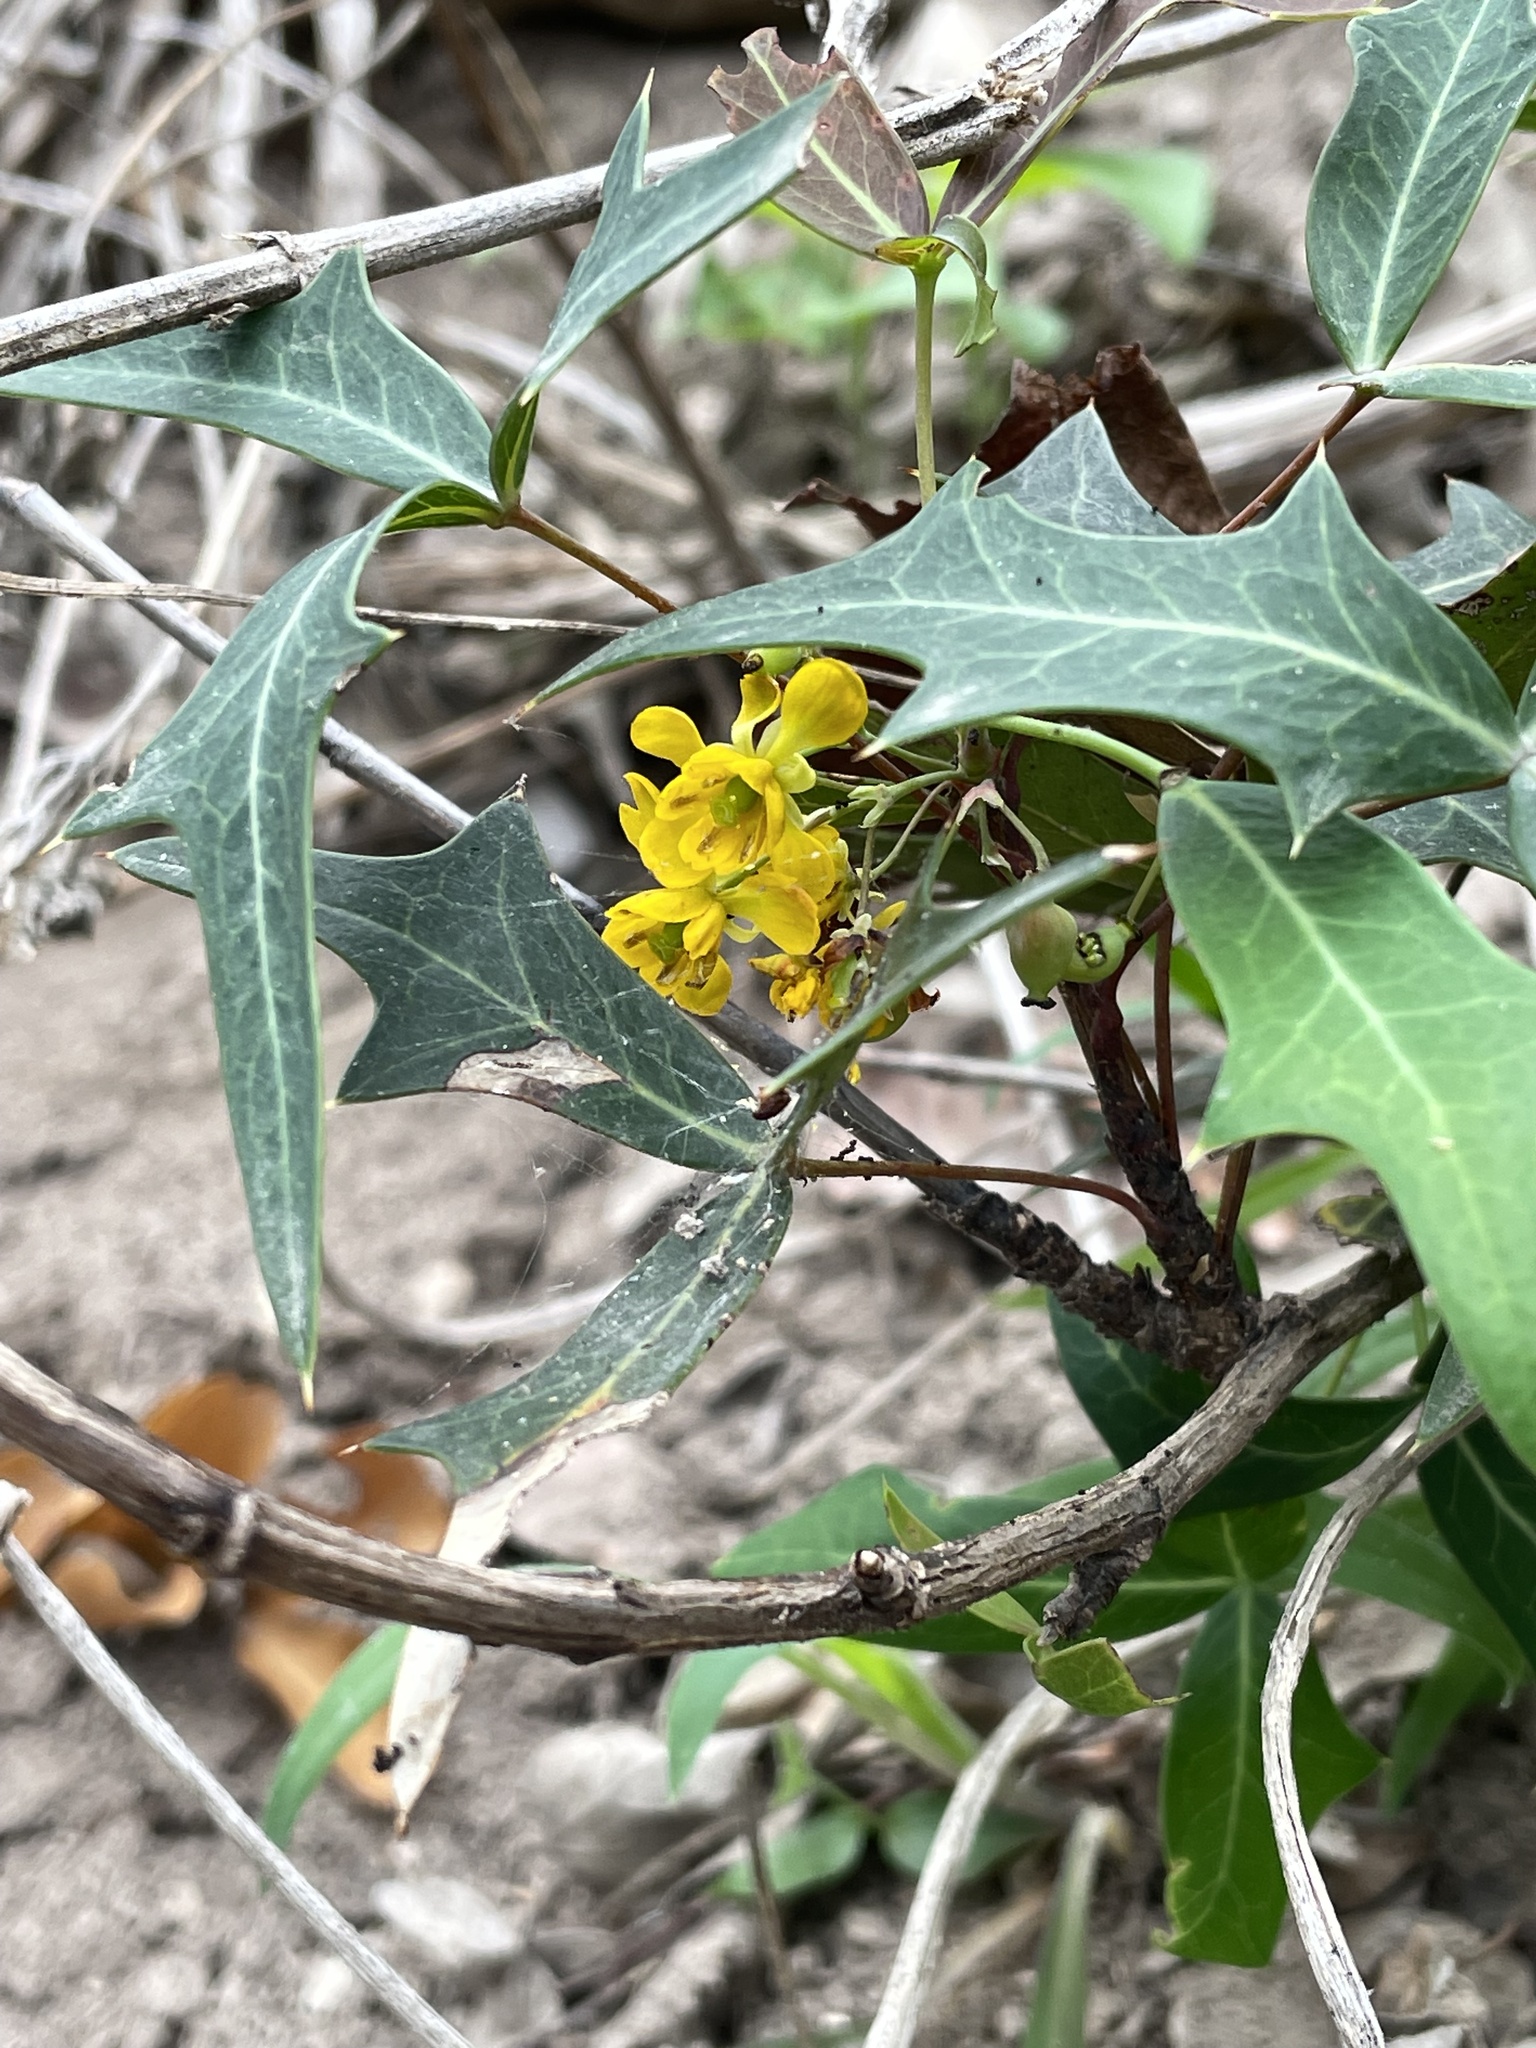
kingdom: Plantae
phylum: Tracheophyta
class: Magnoliopsida
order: Ranunculales
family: Berberidaceae
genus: Alloberberis
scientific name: Alloberberis trifoliolata
